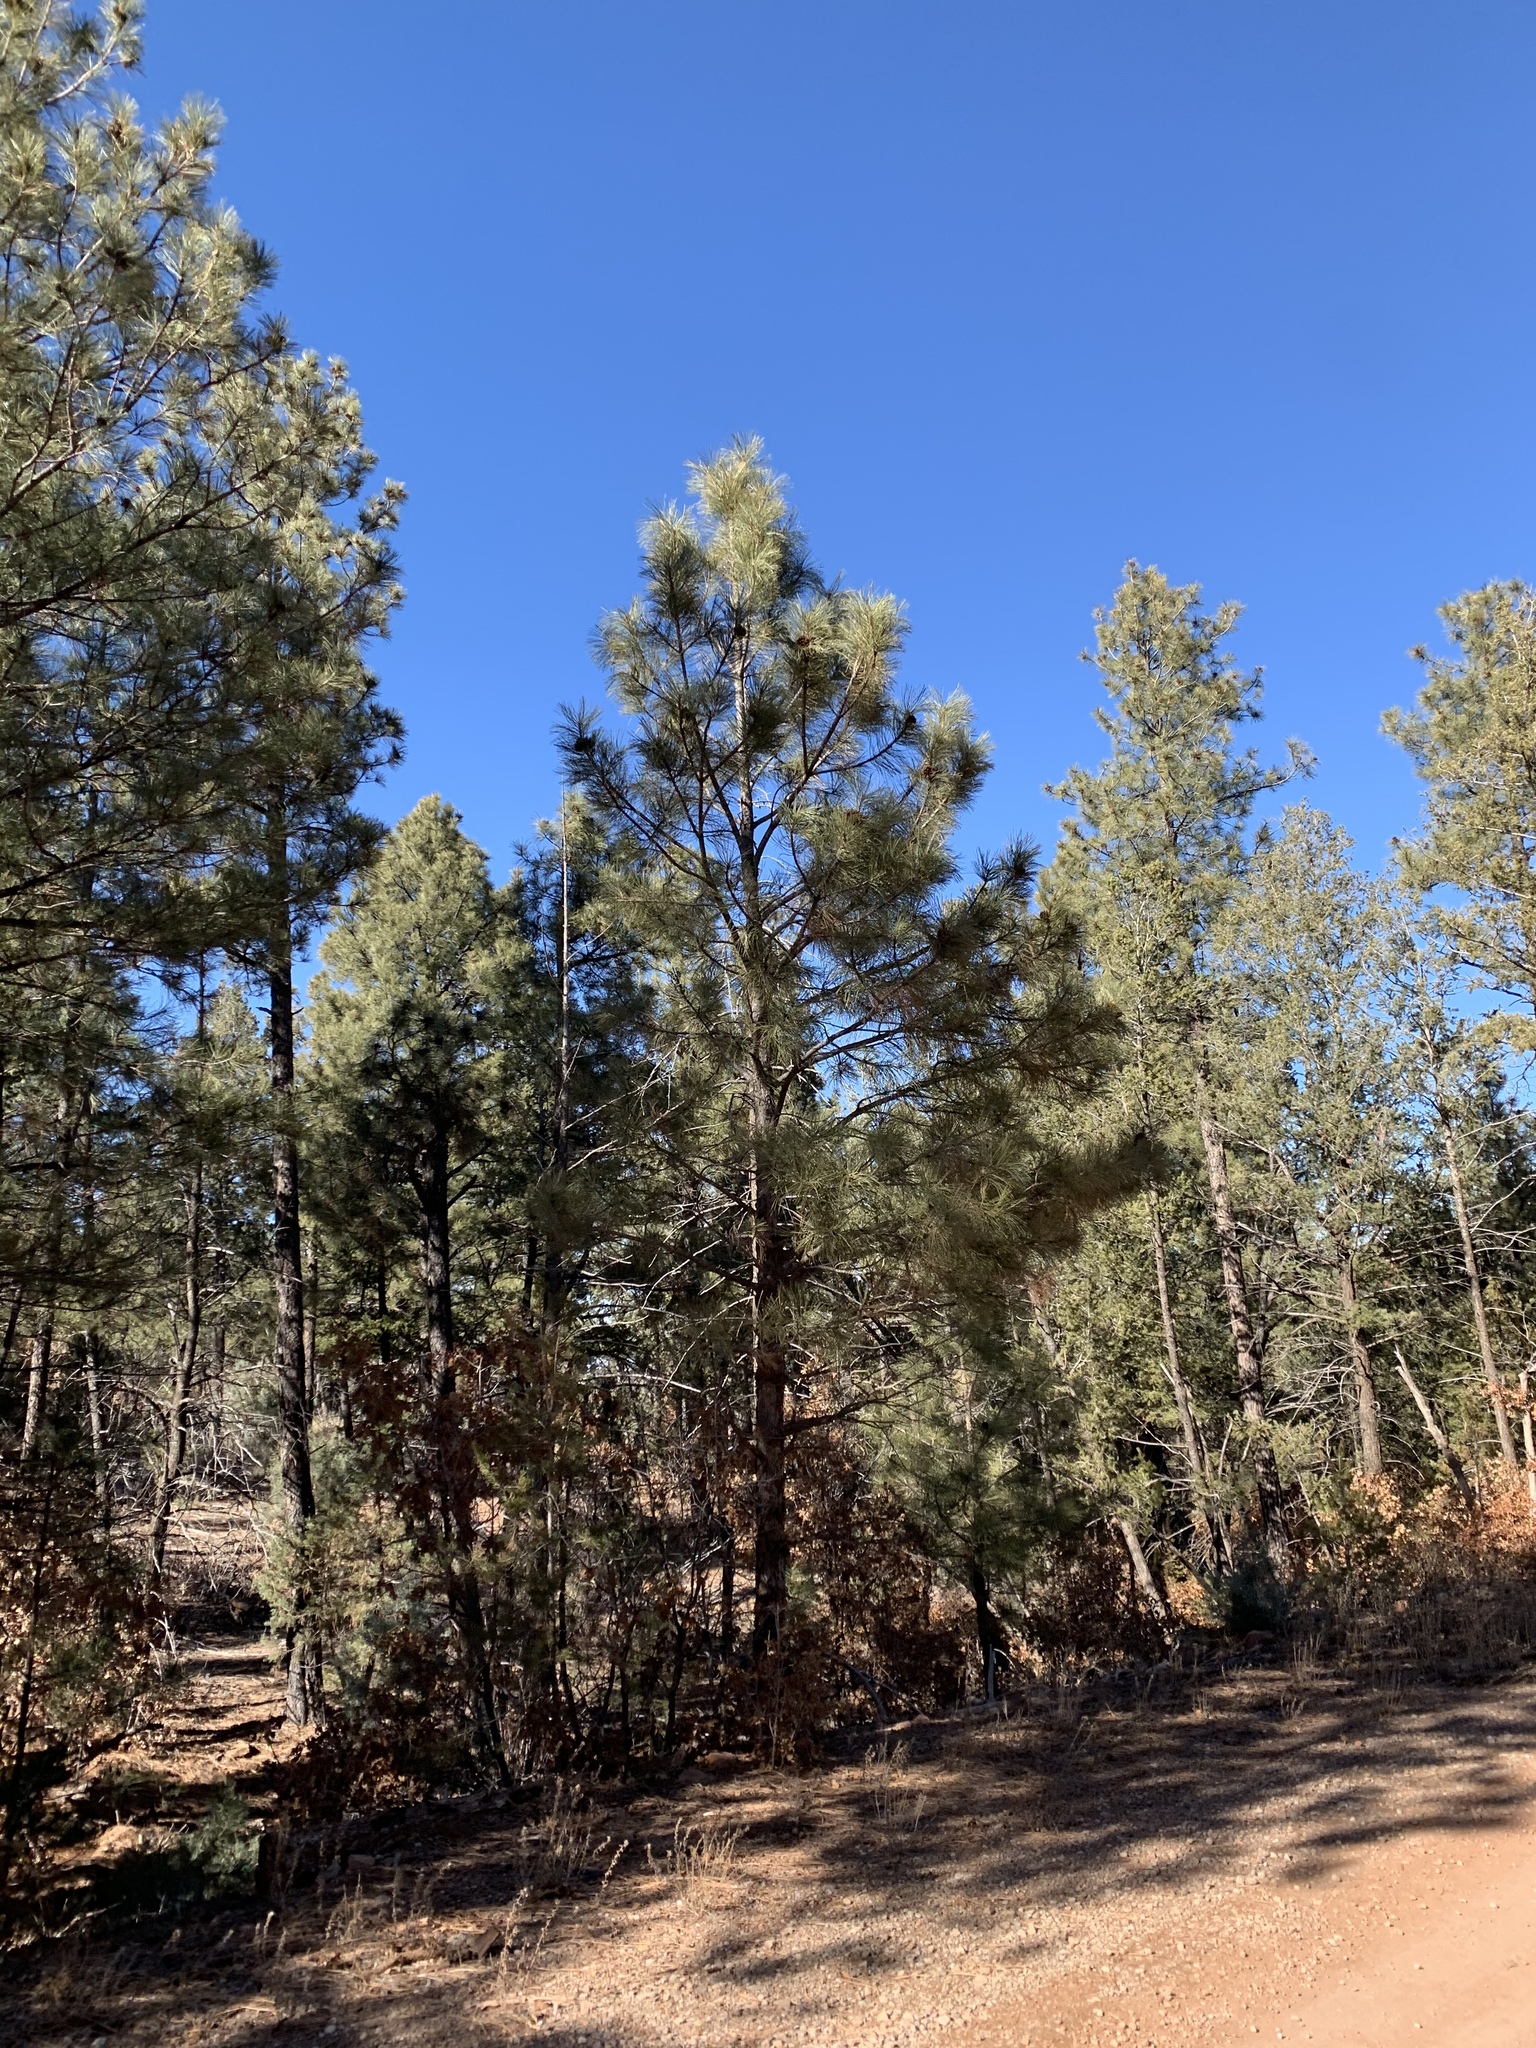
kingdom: Plantae
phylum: Tracheophyta
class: Pinopsida
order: Pinales
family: Pinaceae
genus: Pinus
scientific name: Pinus ponderosa
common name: Western yellow-pine
